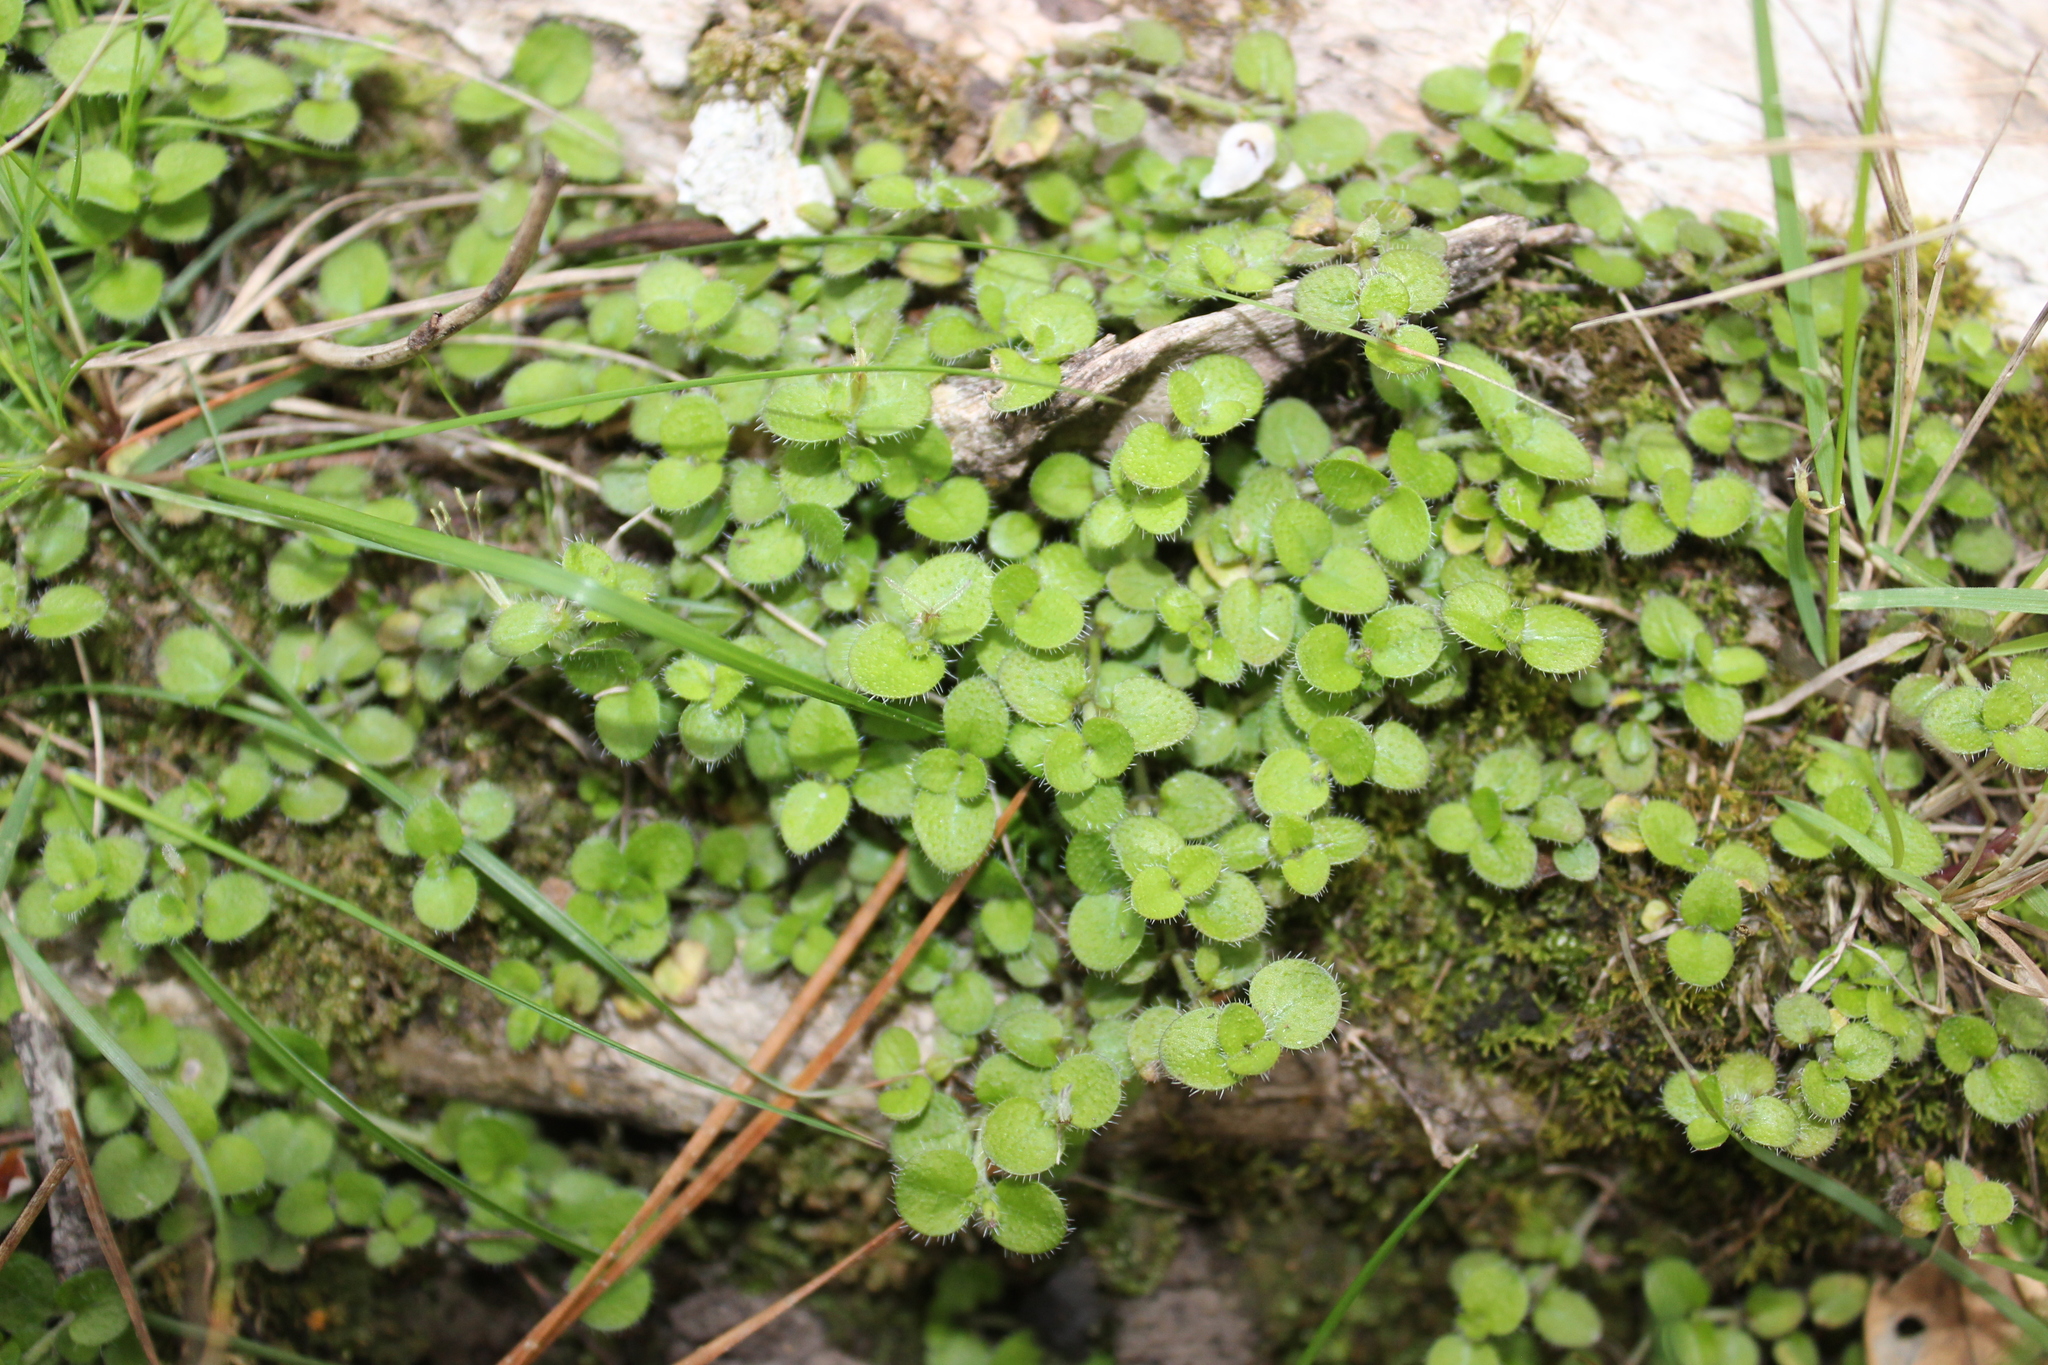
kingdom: Plantae
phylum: Tracheophyta
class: Magnoliopsida
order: Gentianales
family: Rubiaceae
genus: Leptostigma
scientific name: Leptostigma setulosum
